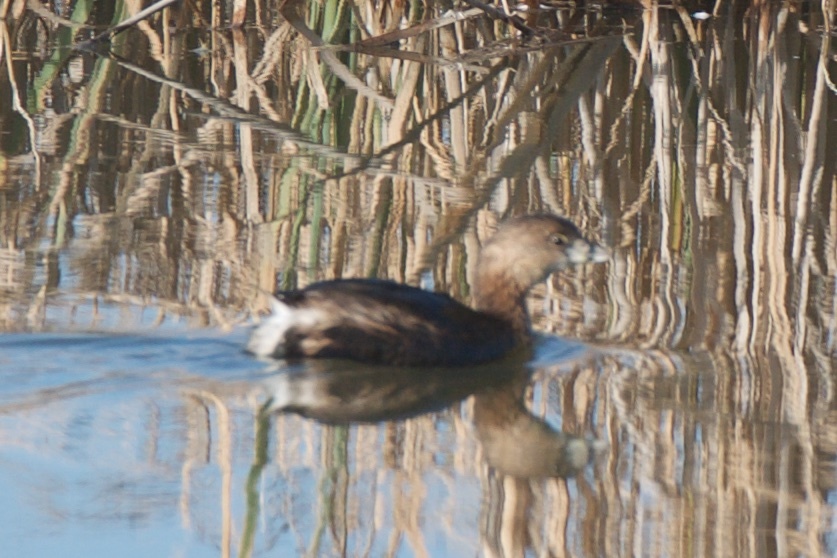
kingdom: Animalia
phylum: Chordata
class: Aves
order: Podicipediformes
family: Podicipedidae
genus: Podilymbus
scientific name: Podilymbus podiceps
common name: Pied-billed grebe
